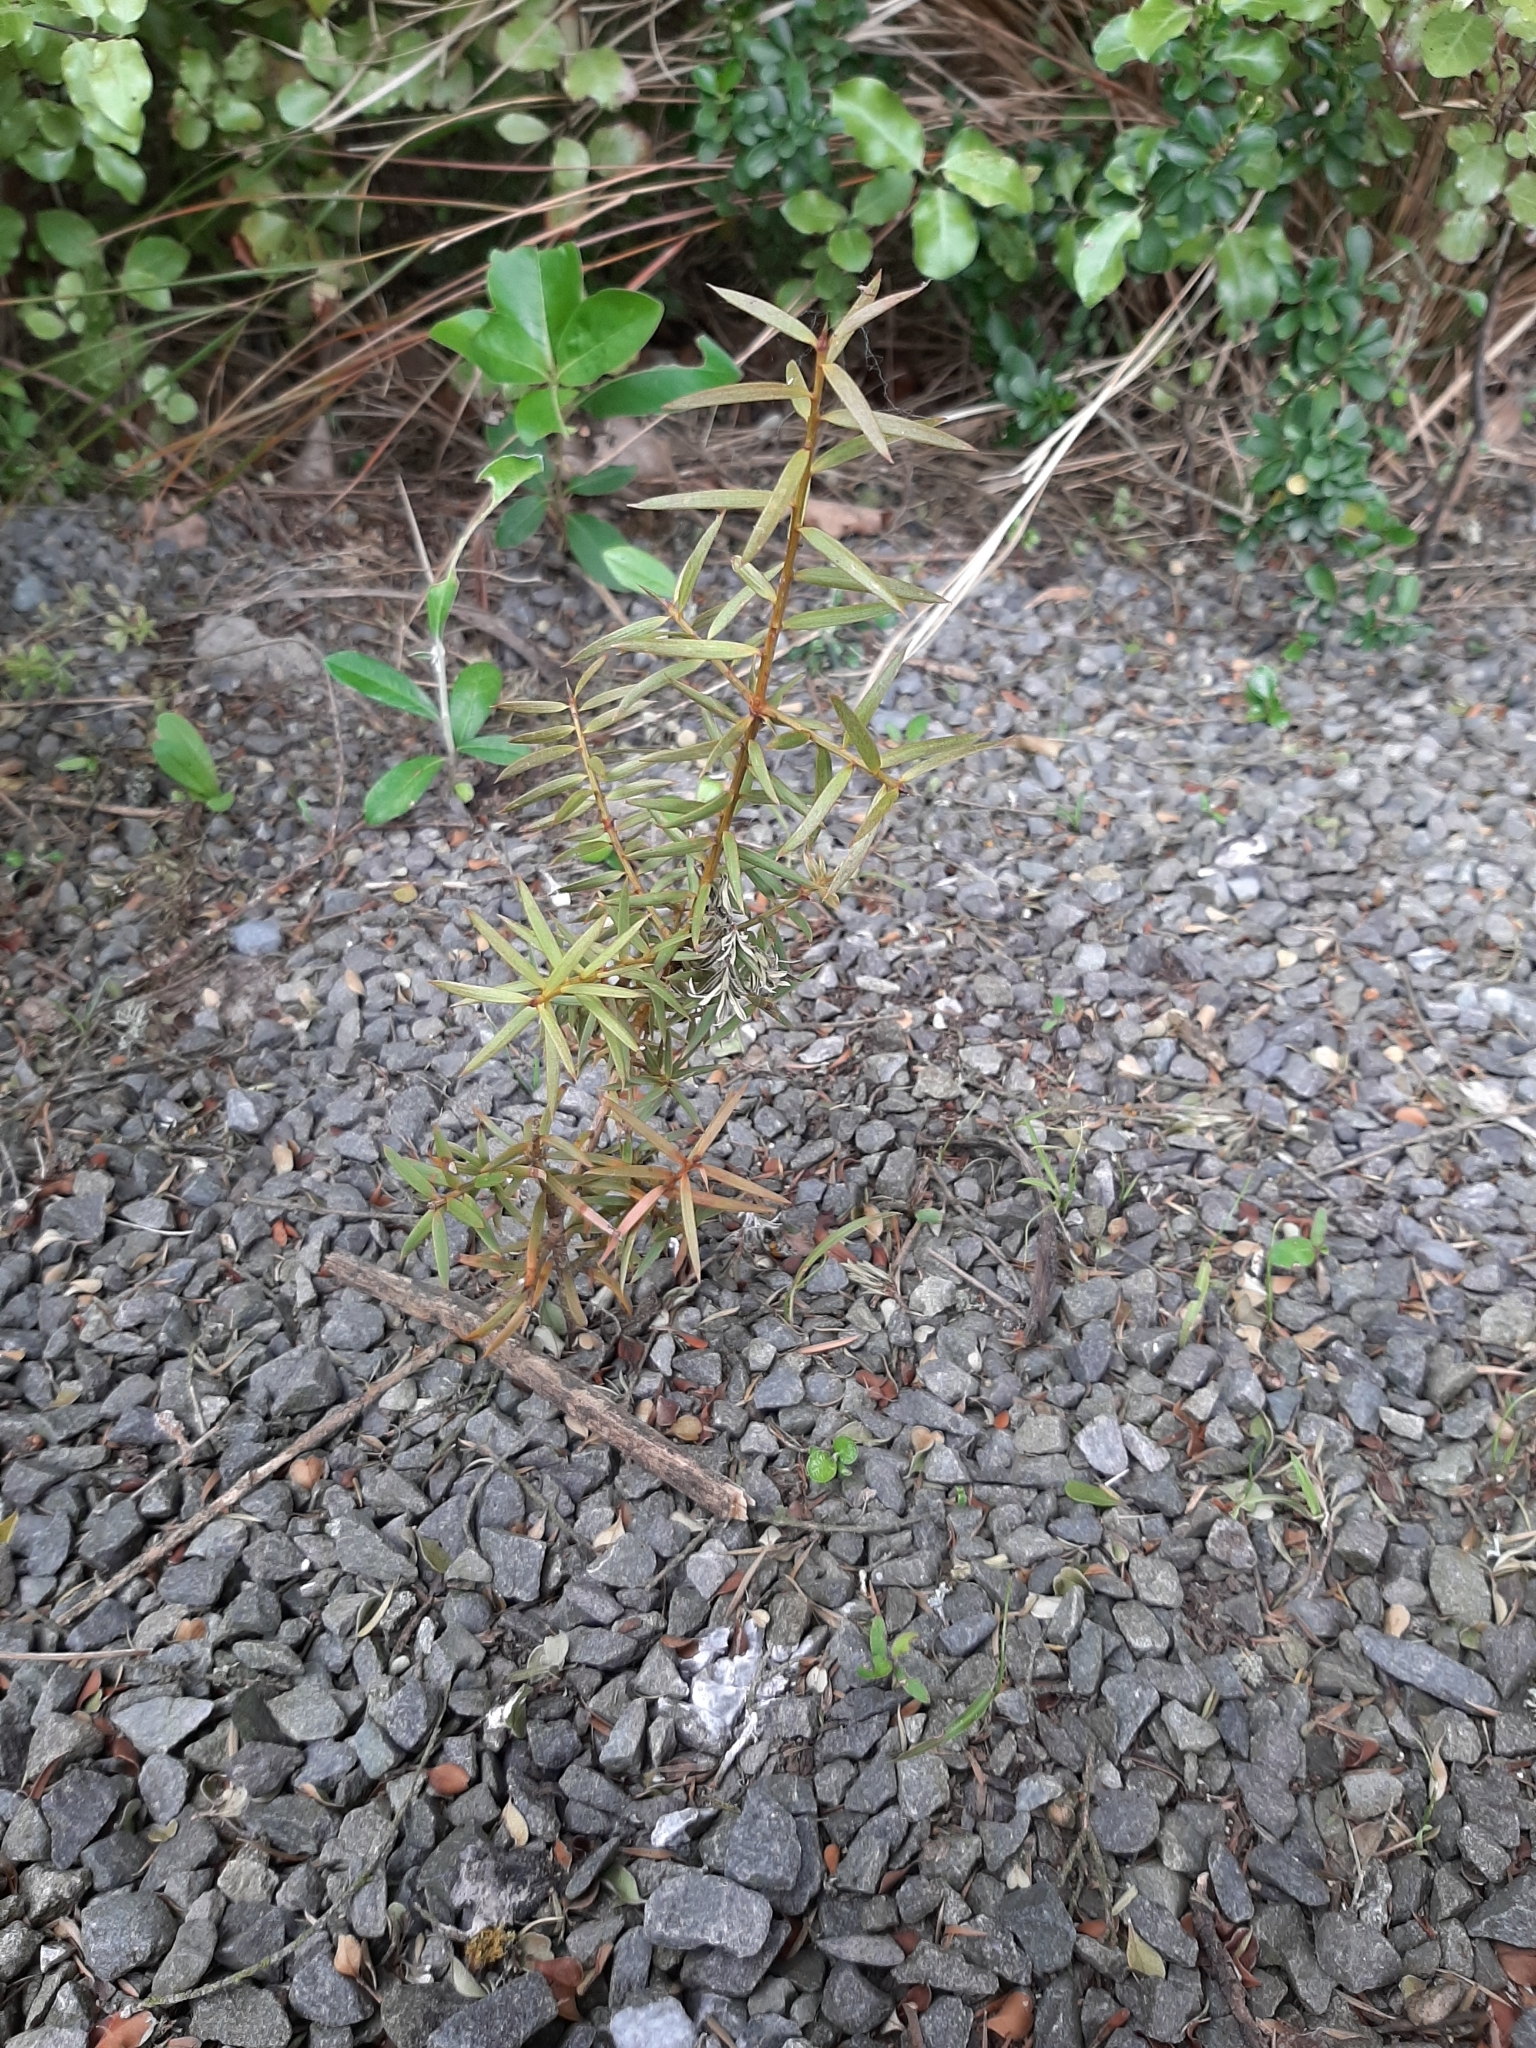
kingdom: Plantae
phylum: Tracheophyta
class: Pinopsida
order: Pinales
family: Podocarpaceae
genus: Podocarpus
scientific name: Podocarpus laetus
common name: Hall's totara
